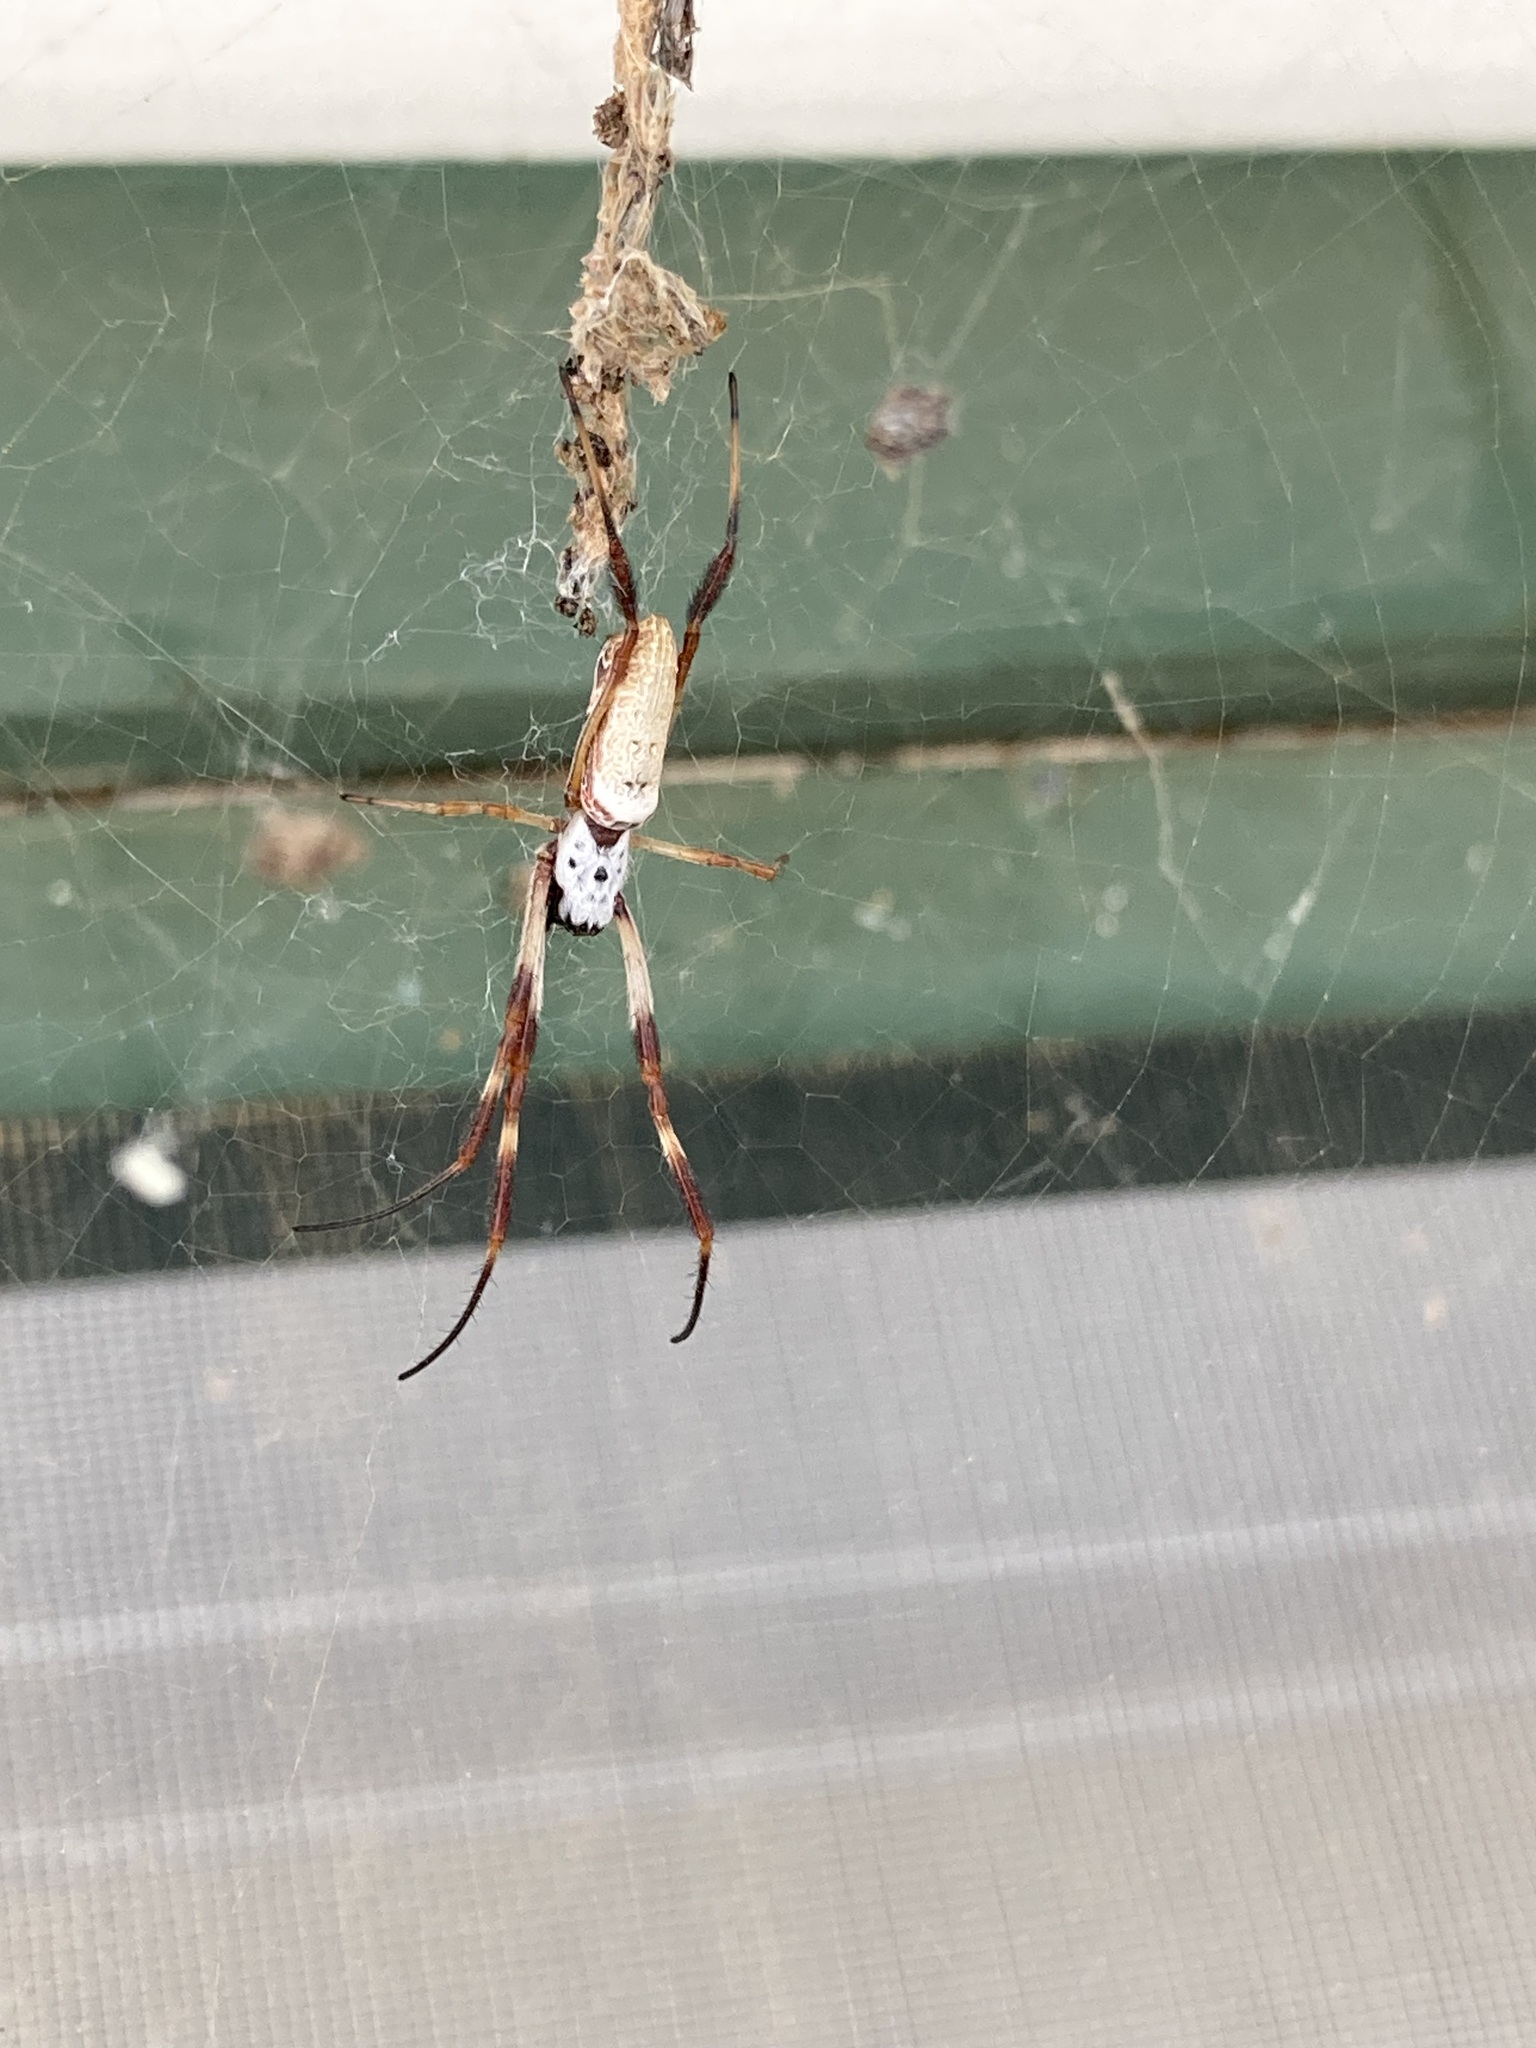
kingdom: Animalia
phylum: Arthropoda
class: Arachnida
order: Araneae
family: Araneidae
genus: Trichonephila
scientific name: Trichonephila edulis
